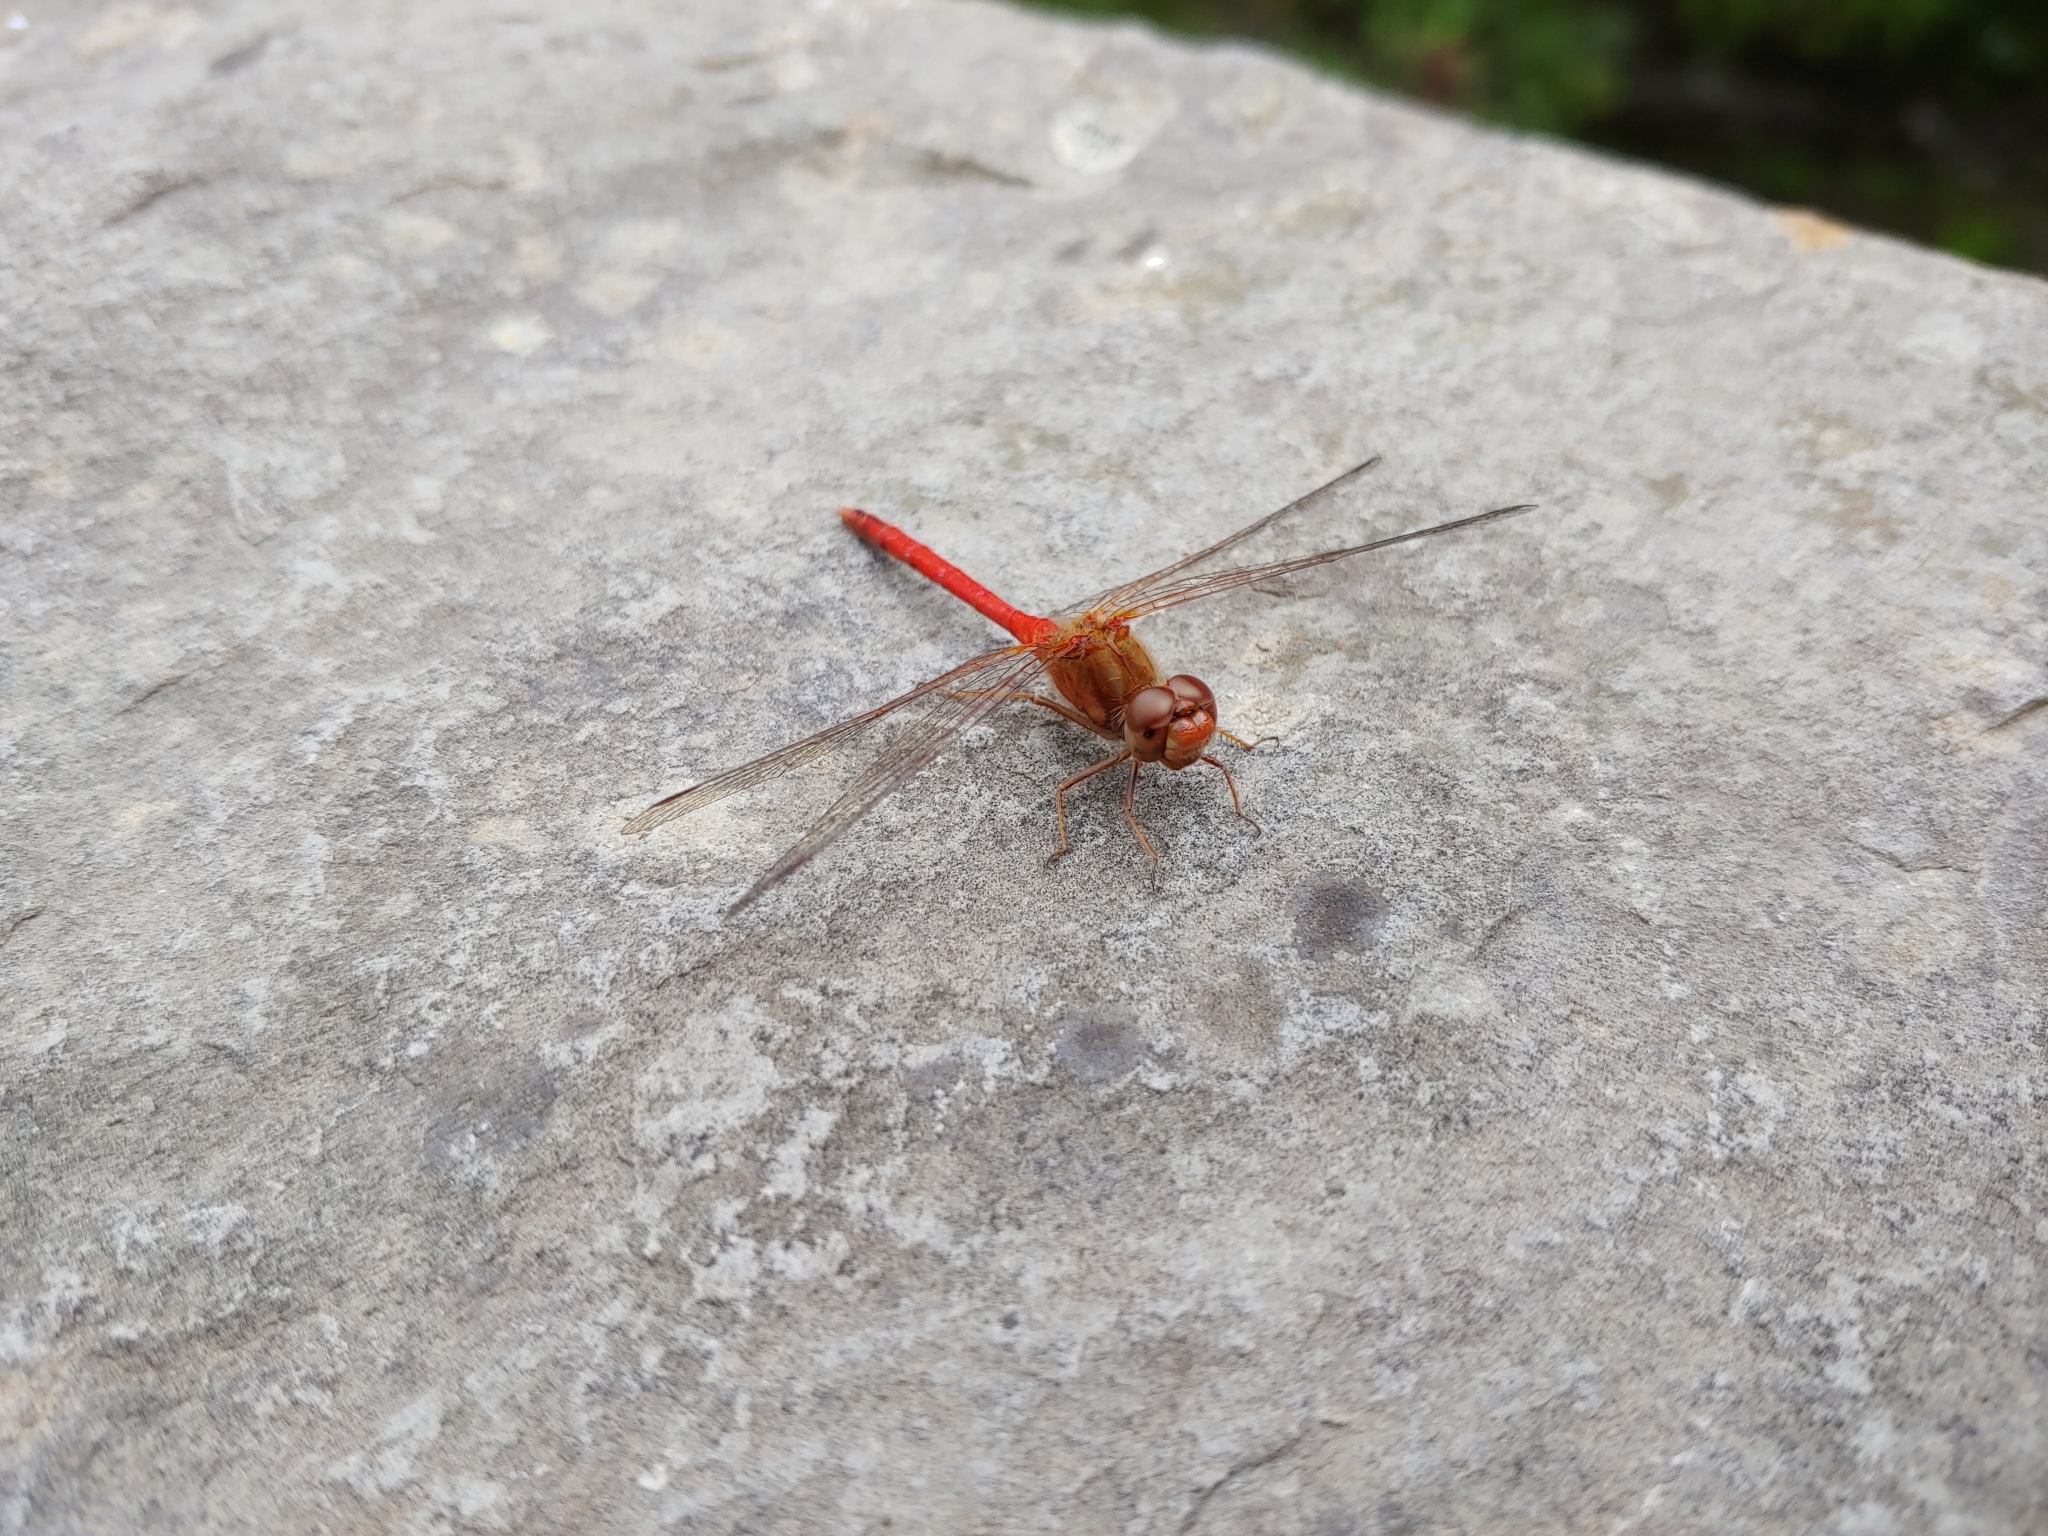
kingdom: Animalia
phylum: Arthropoda
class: Insecta
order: Odonata
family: Libellulidae
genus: Sympetrum
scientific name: Sympetrum vicinum
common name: Autumn meadowhawk
